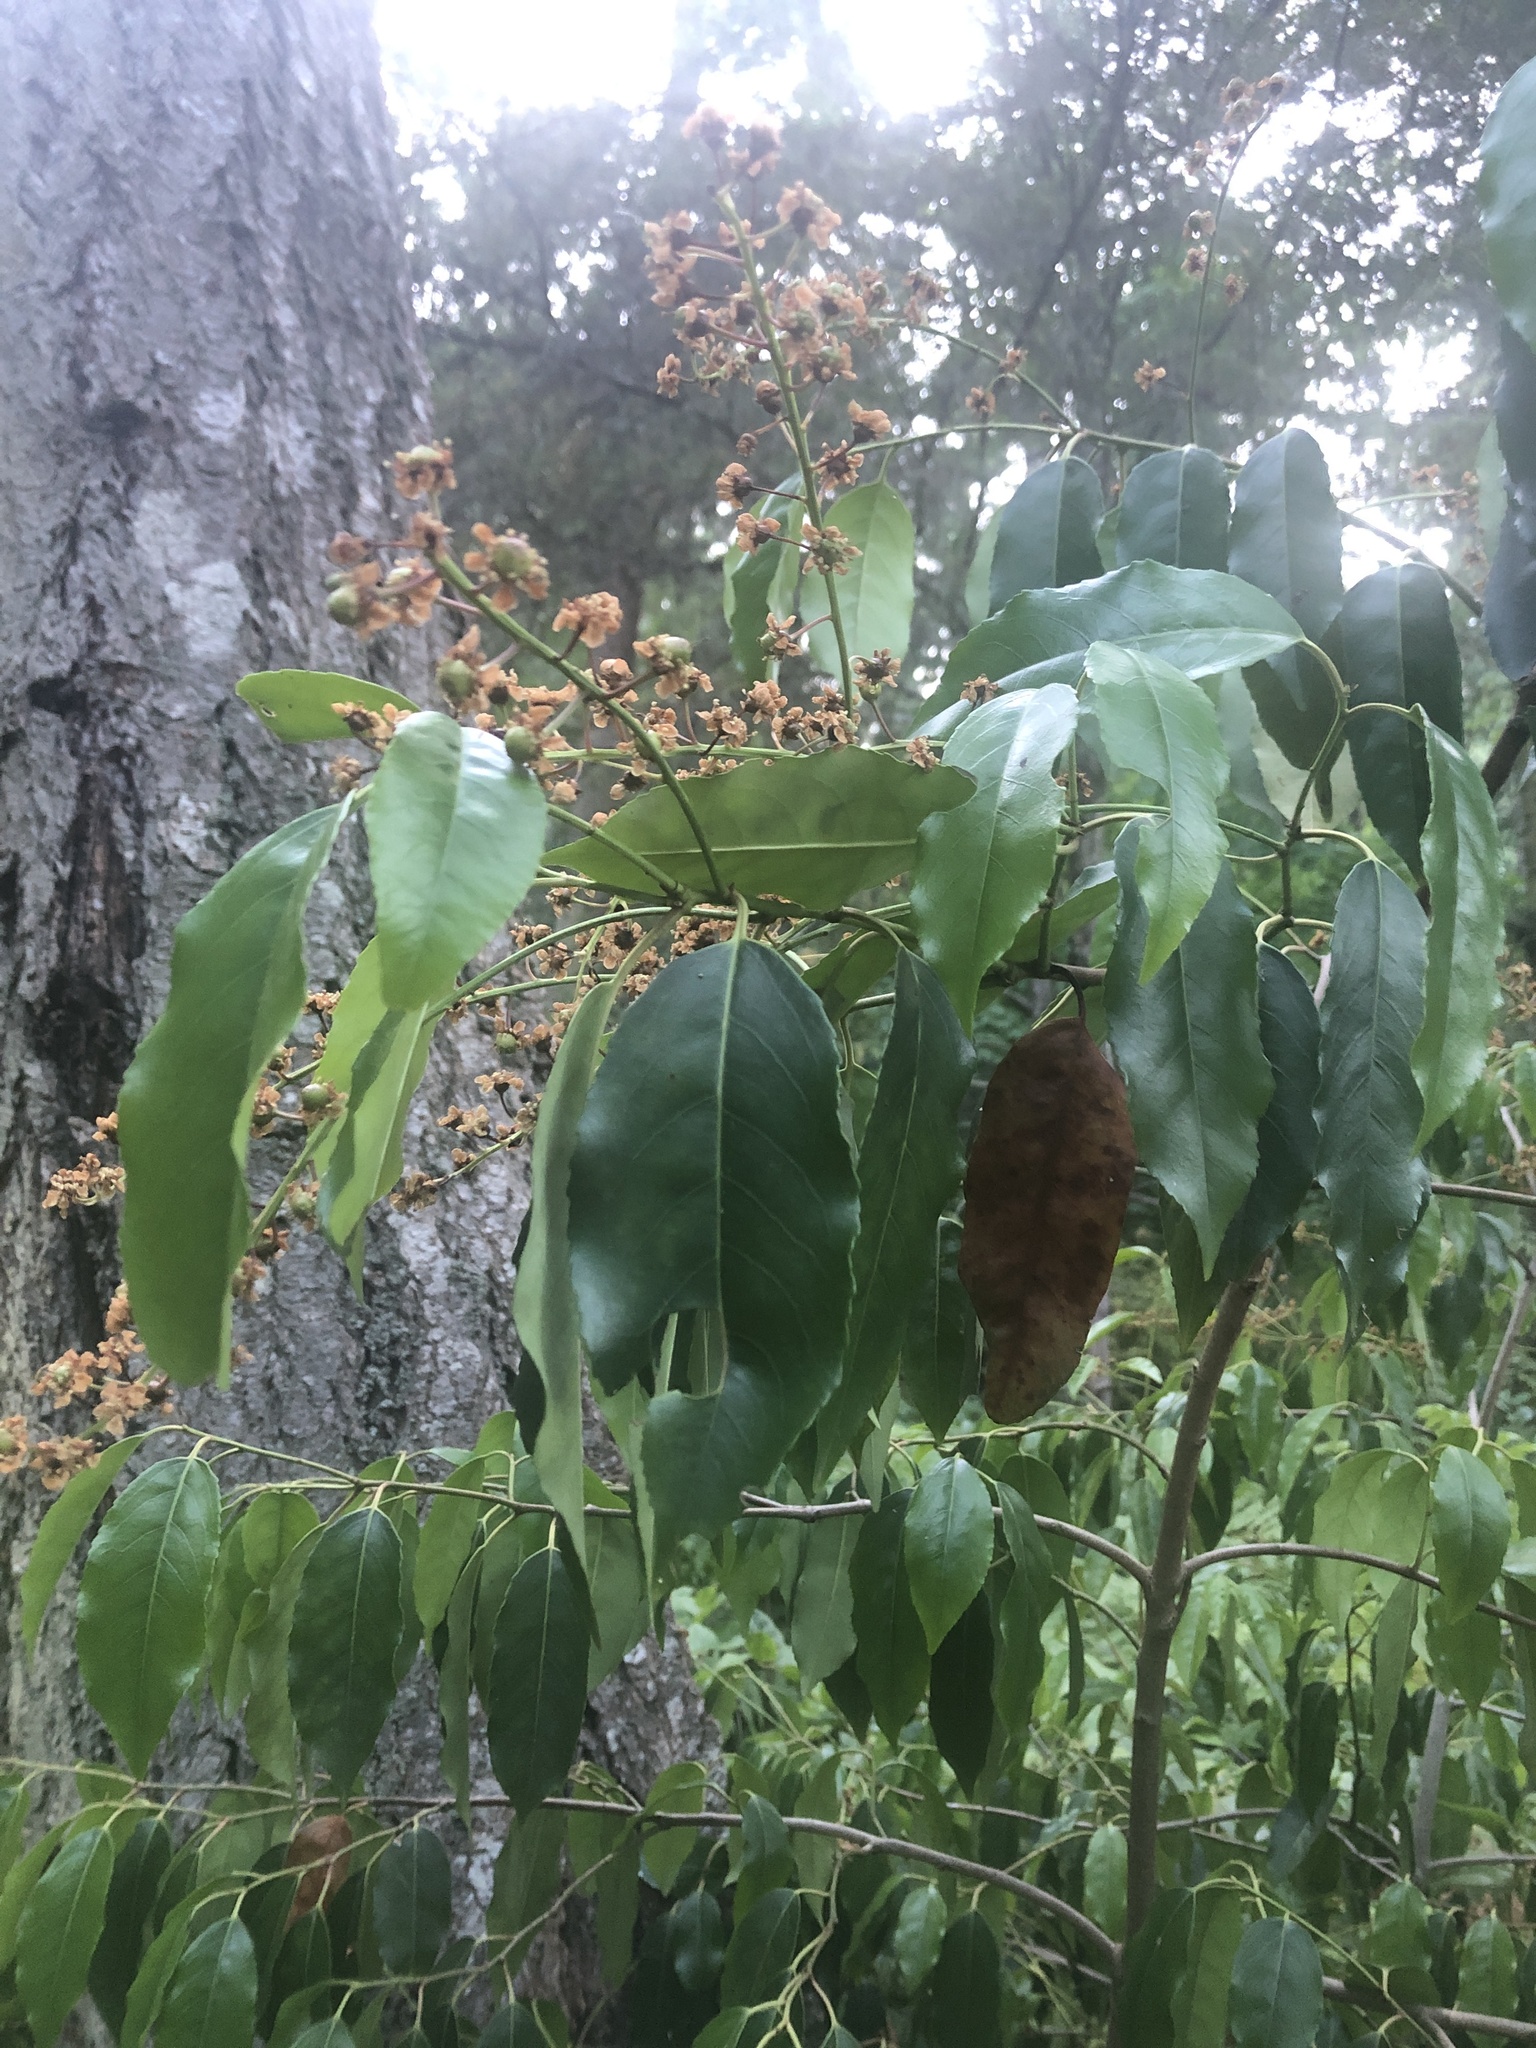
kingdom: Plantae
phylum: Tracheophyta
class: Magnoliopsida
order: Rosales
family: Rosaceae
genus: Prunus
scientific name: Prunus serotina
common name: Black cherry
